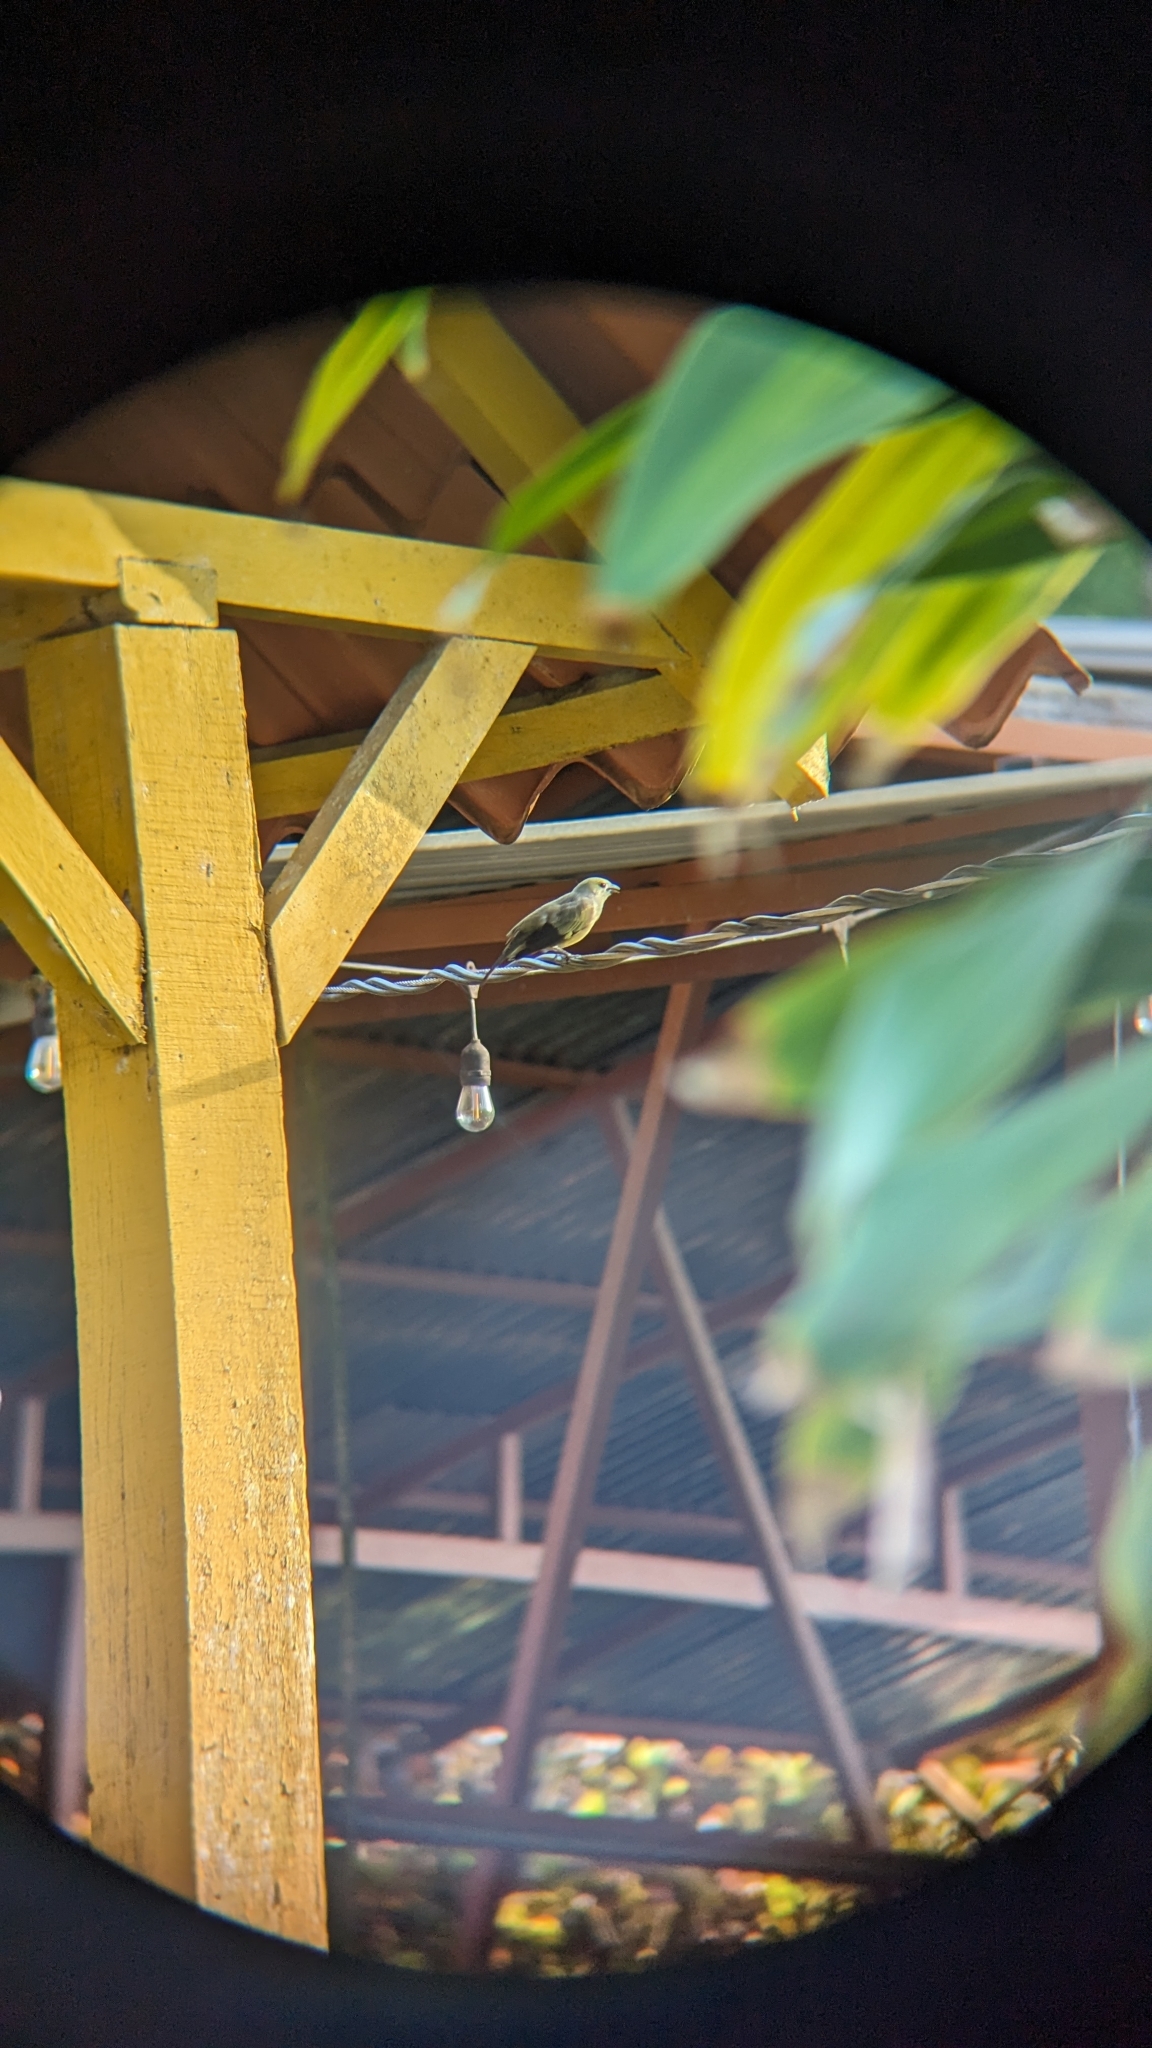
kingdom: Animalia
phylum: Chordata
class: Aves
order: Passeriformes
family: Thraupidae
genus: Thraupis
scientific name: Thraupis palmarum
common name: Palm tanager
